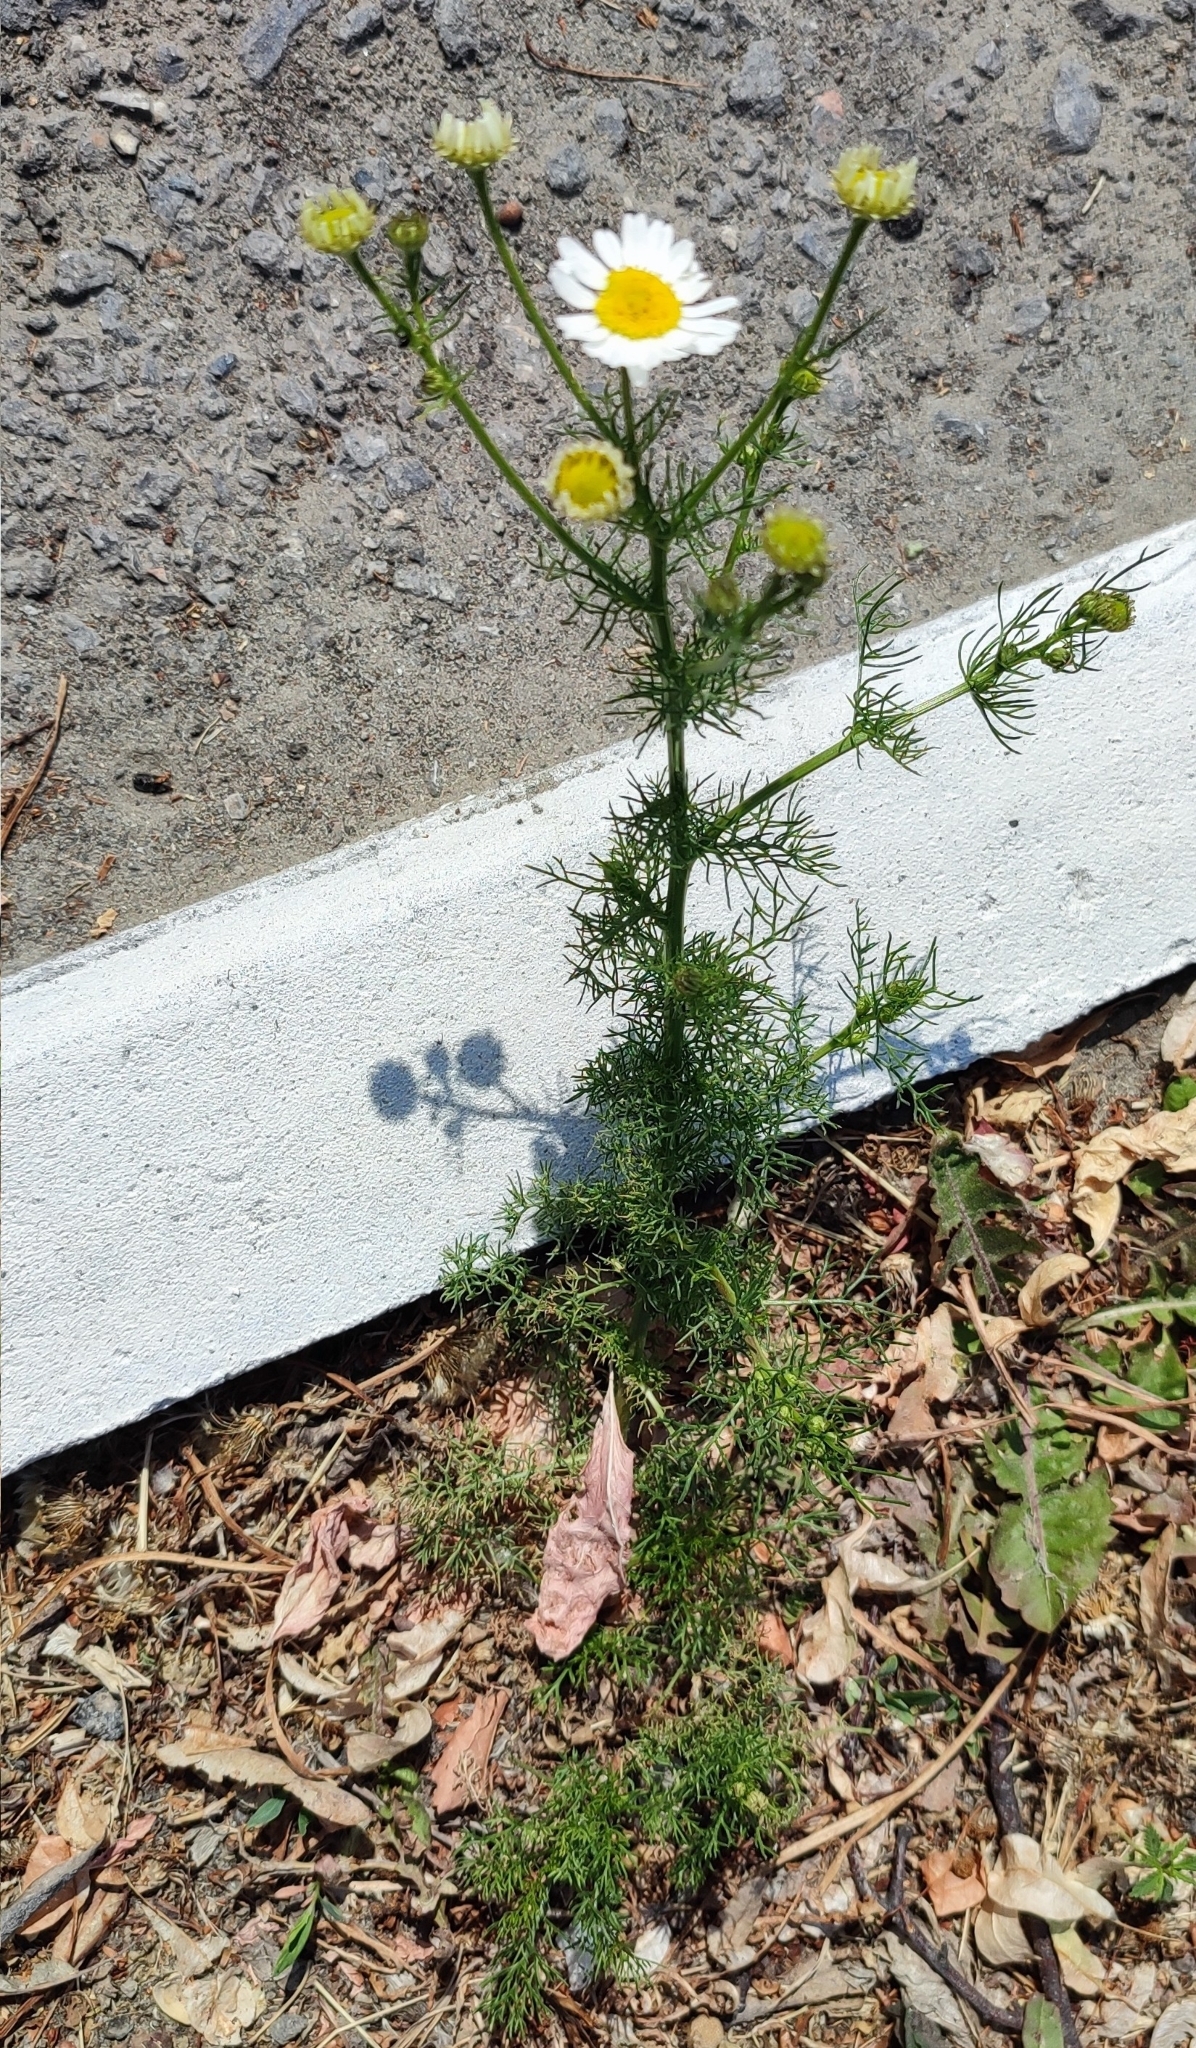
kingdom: Plantae
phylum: Tracheophyta
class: Magnoliopsida
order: Asterales
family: Asteraceae
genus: Tripleurospermum
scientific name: Tripleurospermum inodorum
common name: Scentless mayweed
